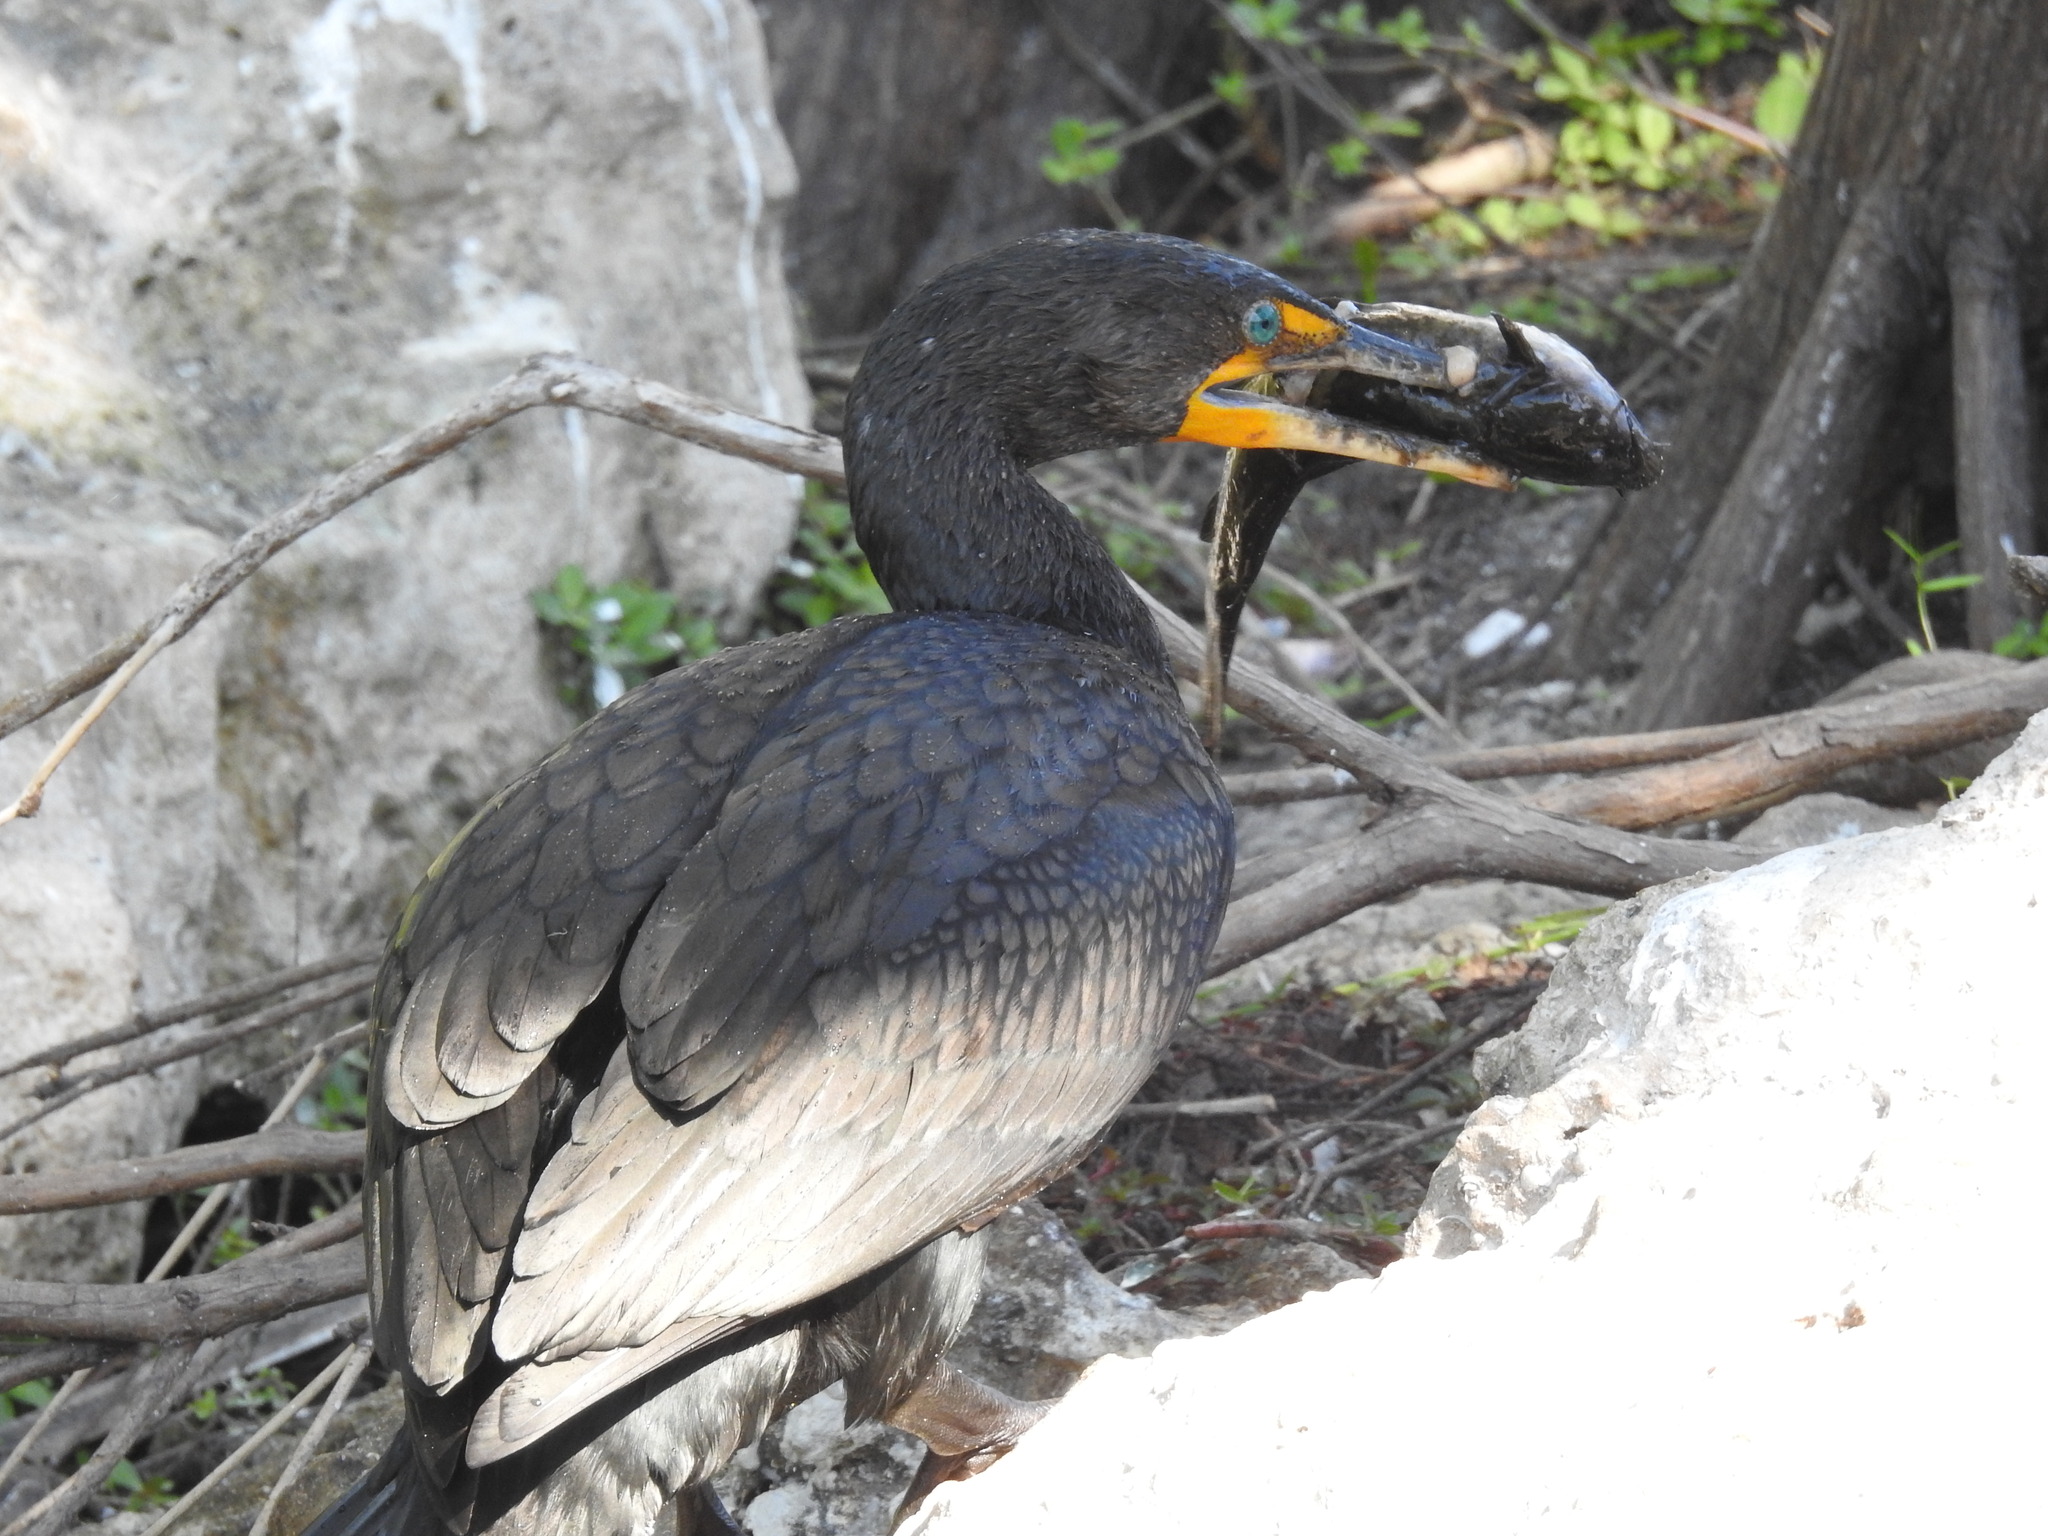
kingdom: Animalia
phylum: Chordata
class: Aves
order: Suliformes
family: Phalacrocoracidae
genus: Phalacrocorax
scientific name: Phalacrocorax auritus
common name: Double-crested cormorant
